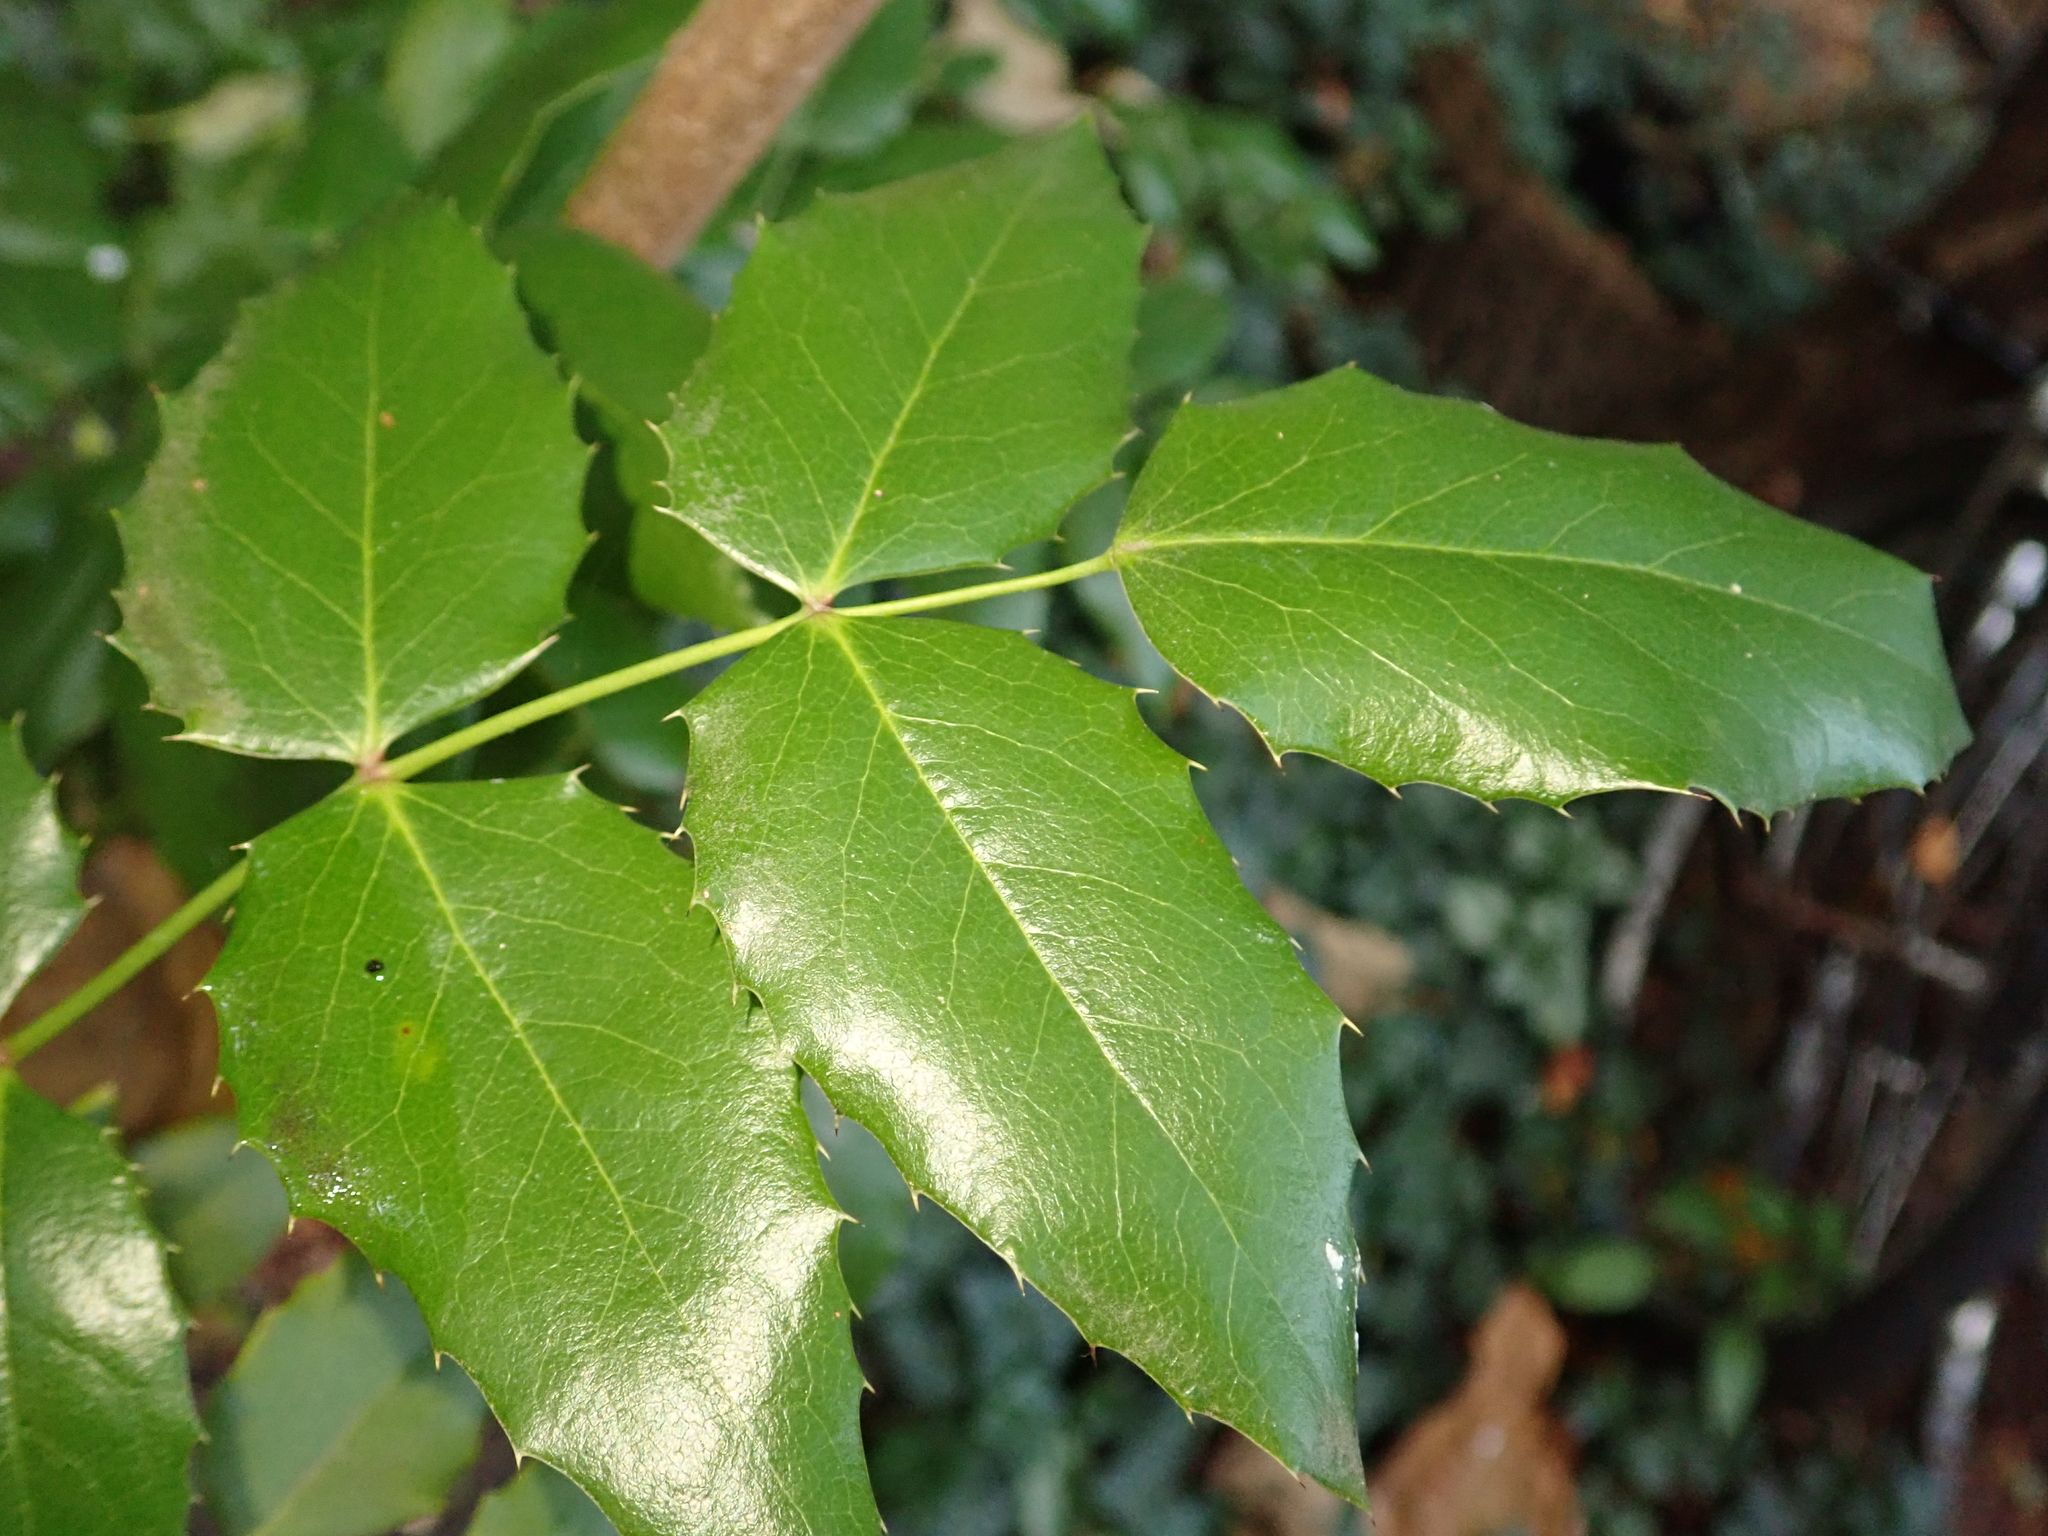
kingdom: Plantae
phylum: Tracheophyta
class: Magnoliopsida
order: Ranunculales
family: Berberidaceae
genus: Mahonia
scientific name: Mahonia aquifolium
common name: Oregon-grape
